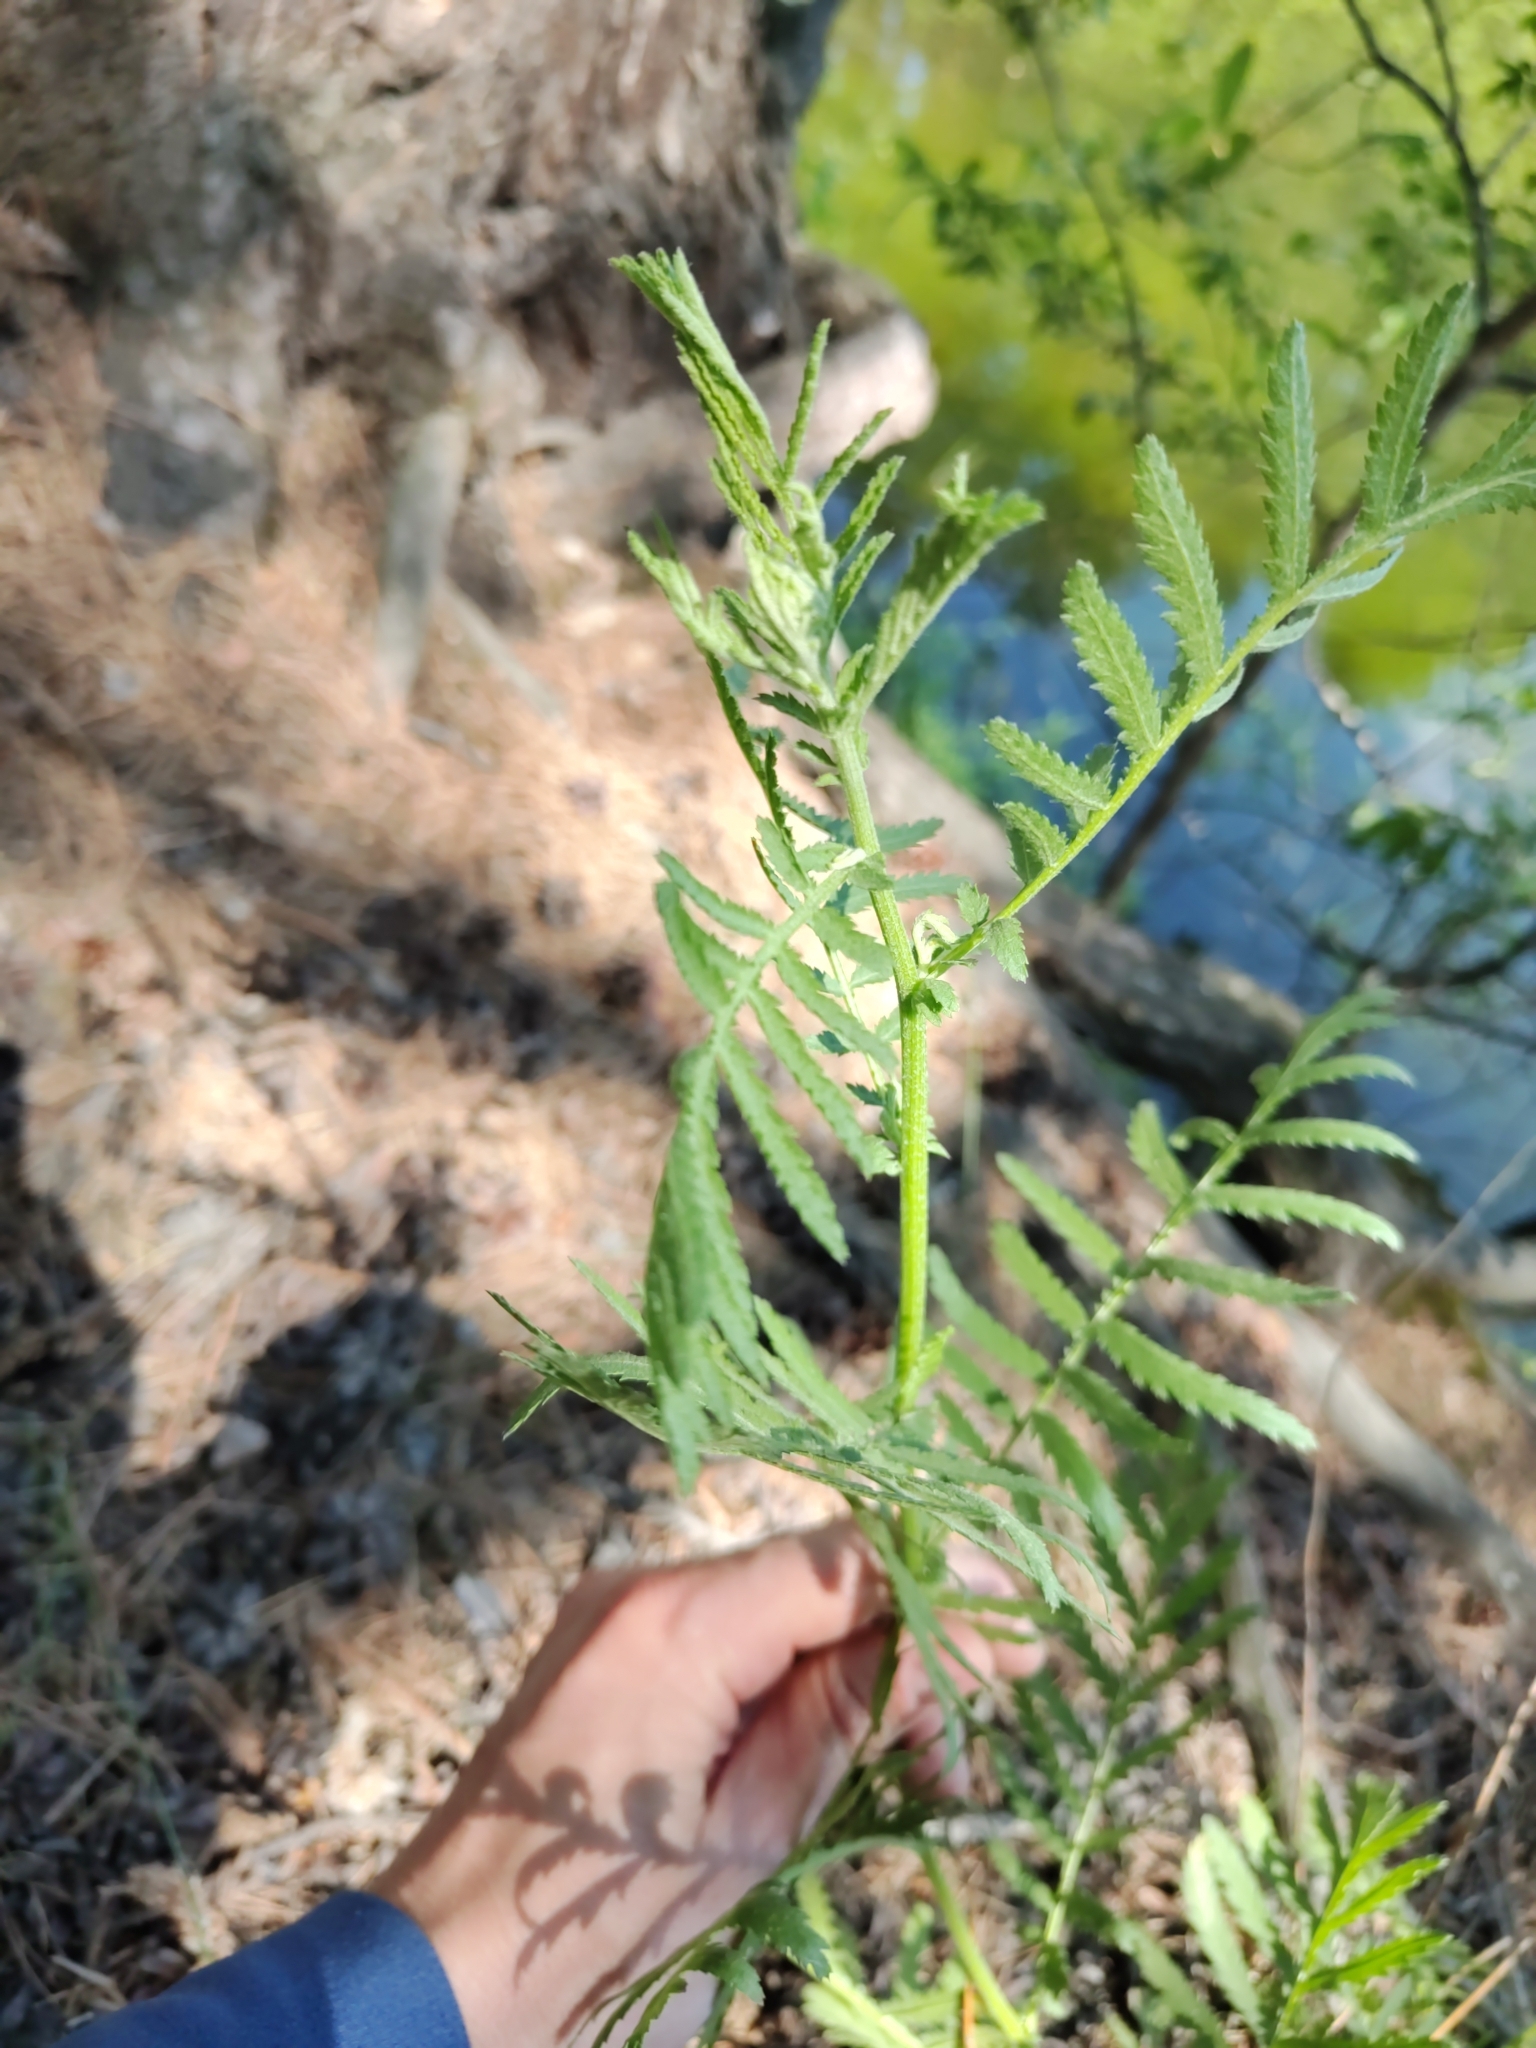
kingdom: Plantae
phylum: Tracheophyta
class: Magnoliopsida
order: Asterales
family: Asteraceae
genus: Tanacetum
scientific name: Tanacetum vulgare
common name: Common tansy
